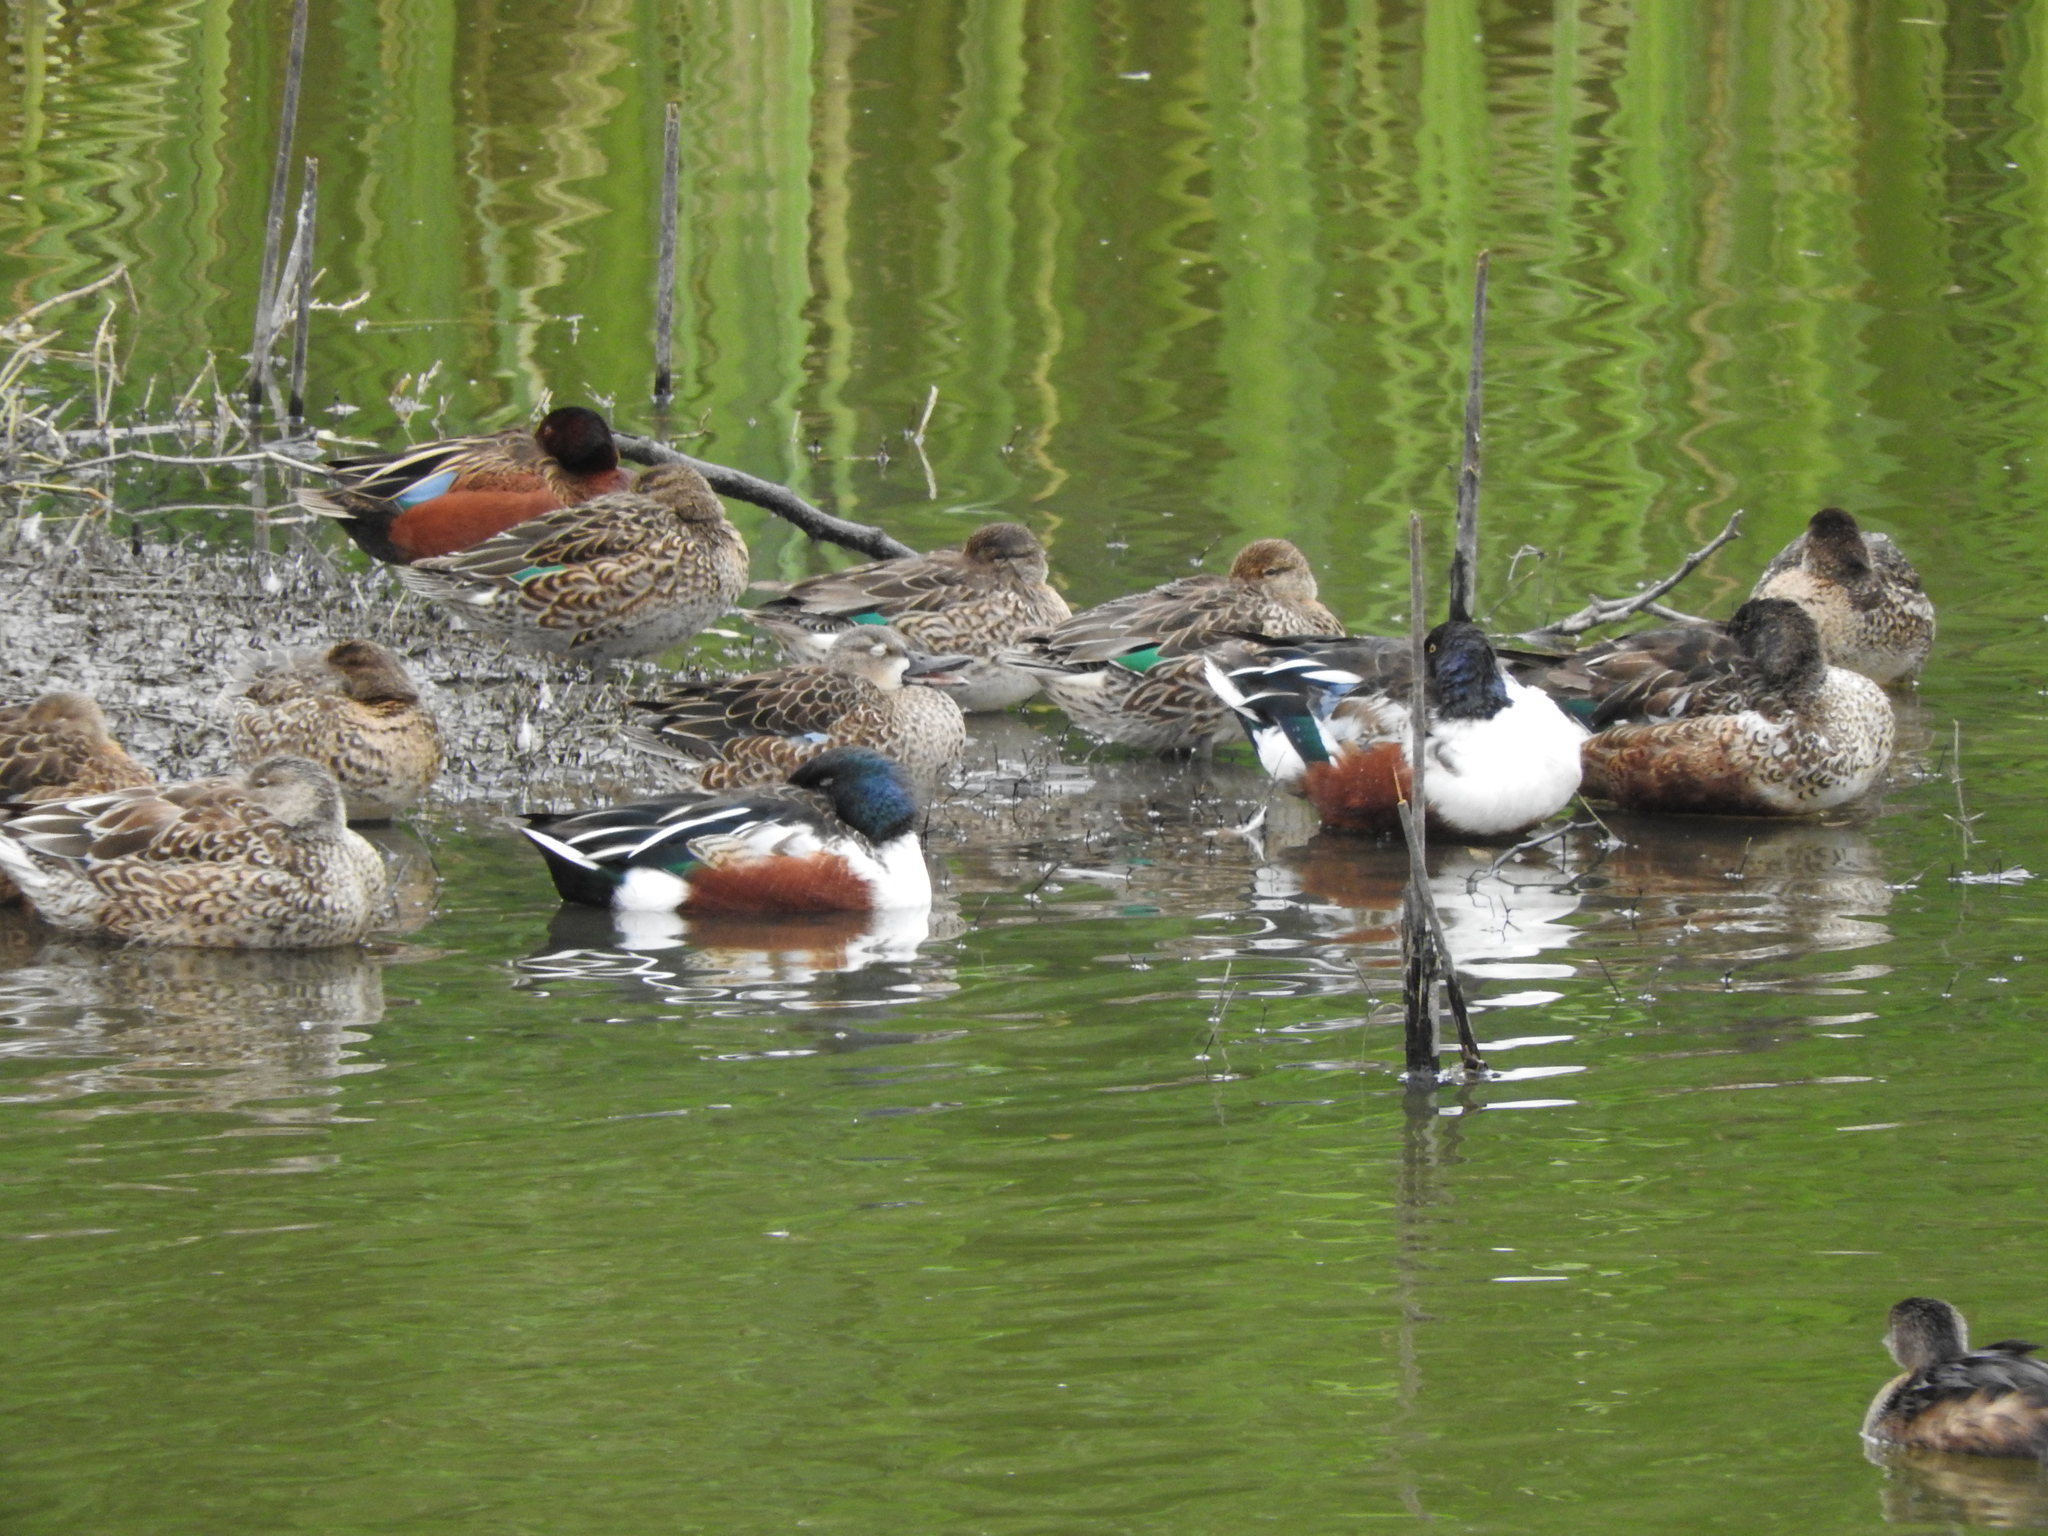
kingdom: Animalia
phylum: Chordata
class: Aves
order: Anseriformes
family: Anatidae
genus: Spatula
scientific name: Spatula clypeata
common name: Northern shoveler
